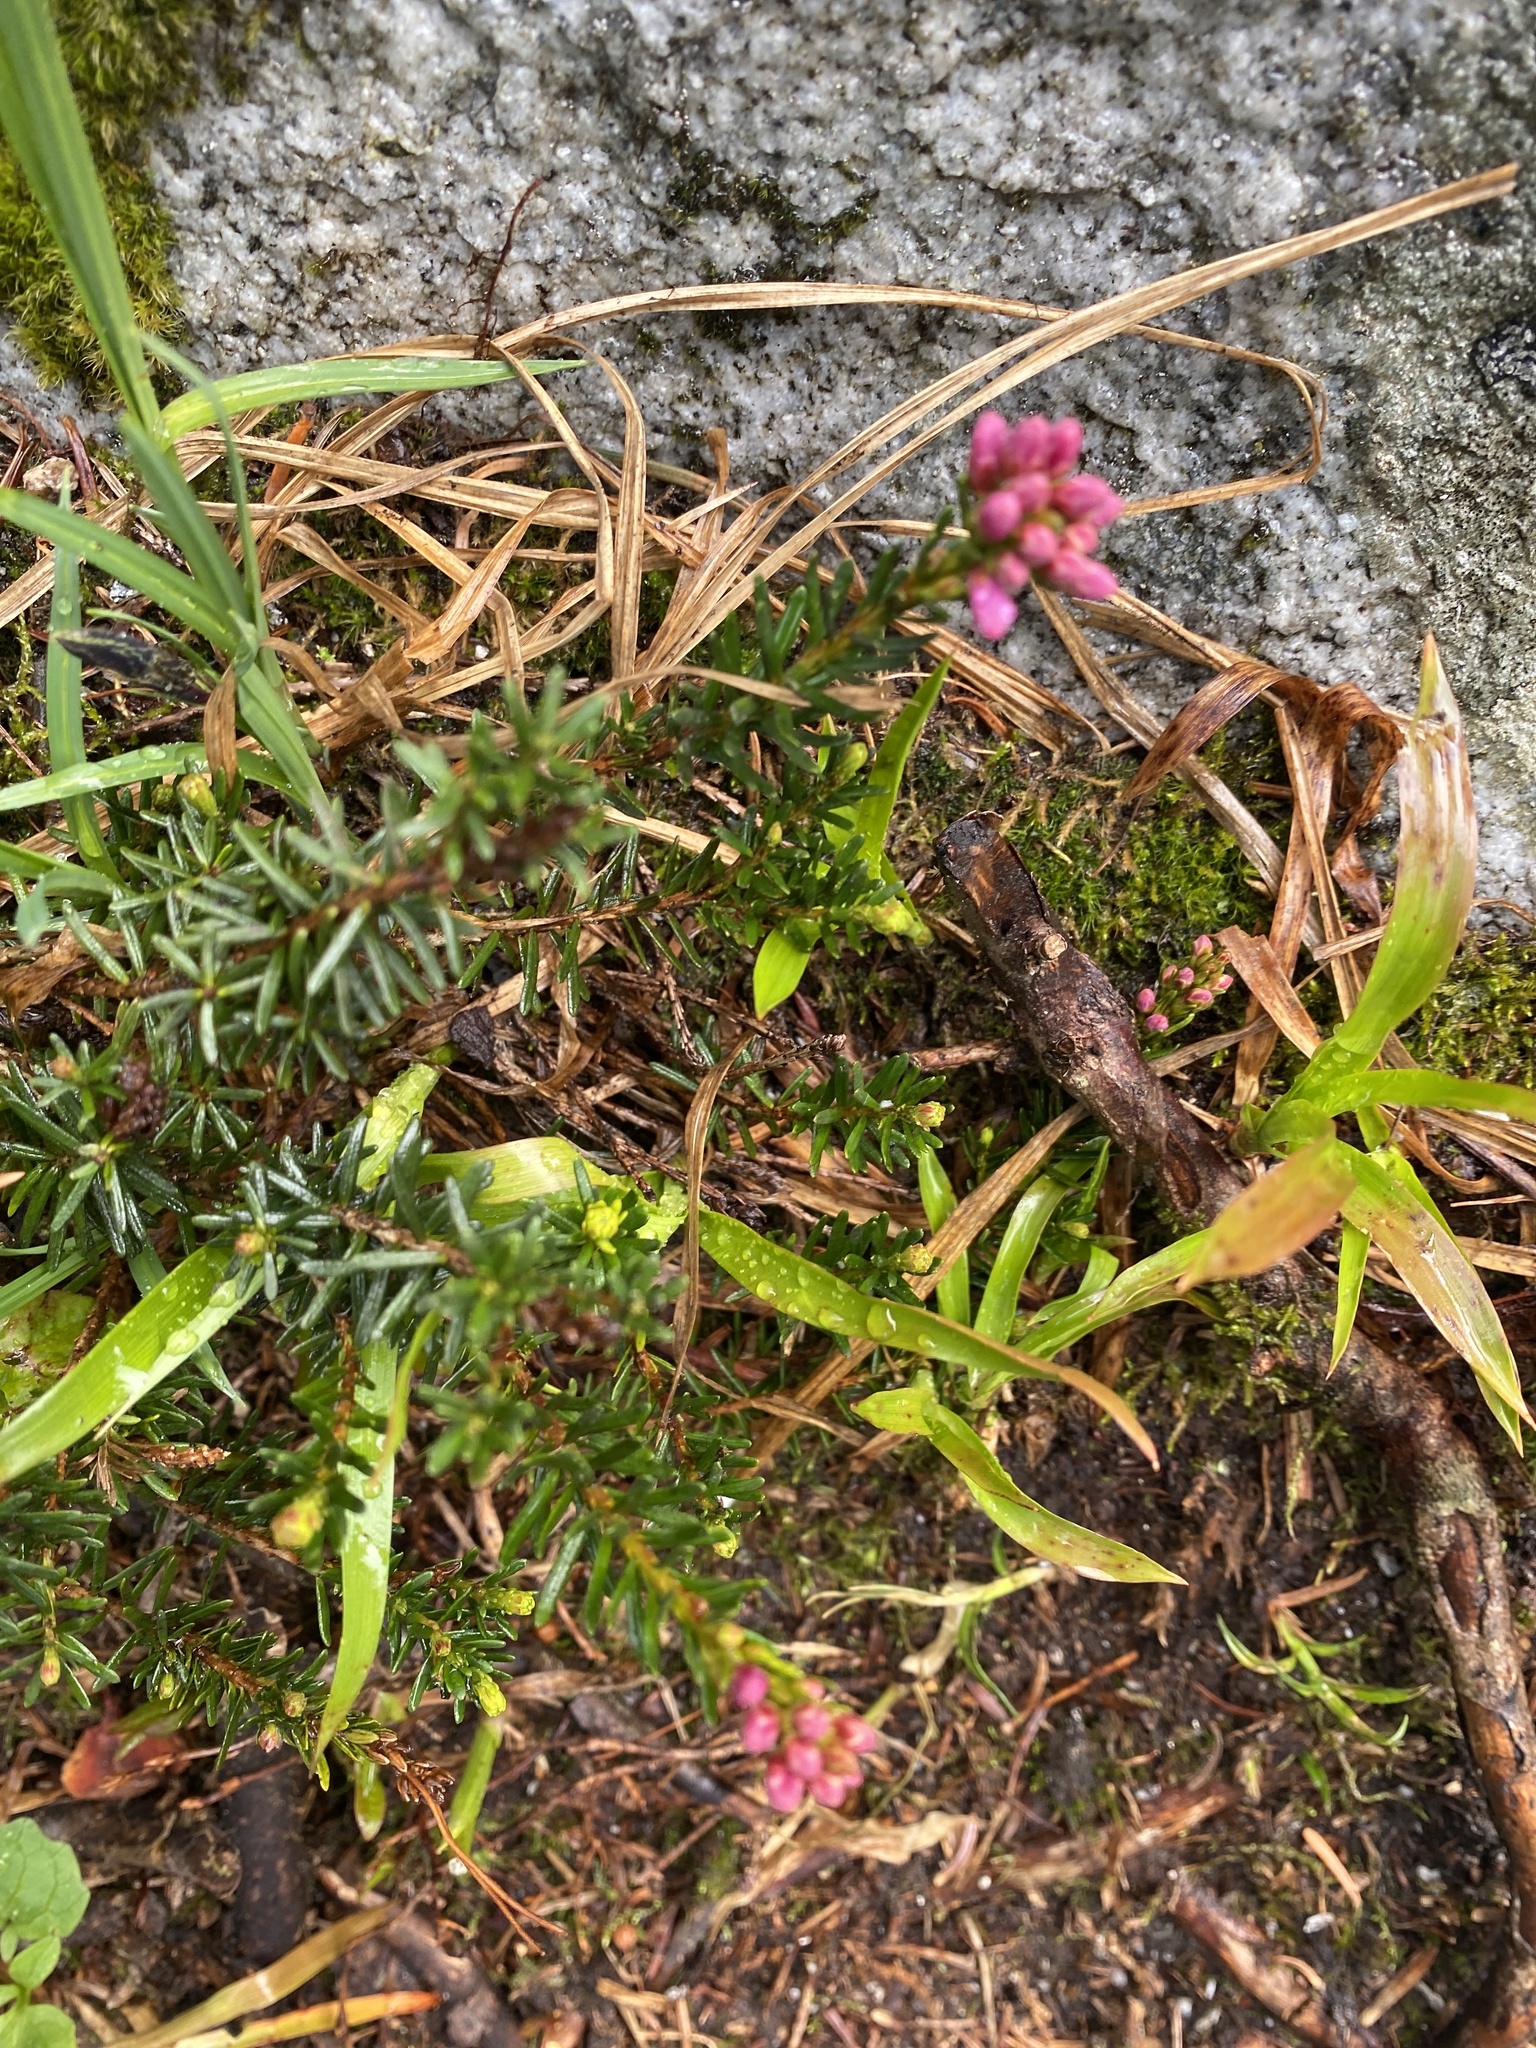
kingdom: Plantae
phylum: Tracheophyta
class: Magnoliopsida
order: Ericales
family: Ericaceae
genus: Phyllodoce
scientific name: Phyllodoce empetriformis
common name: Pink mountain heather
